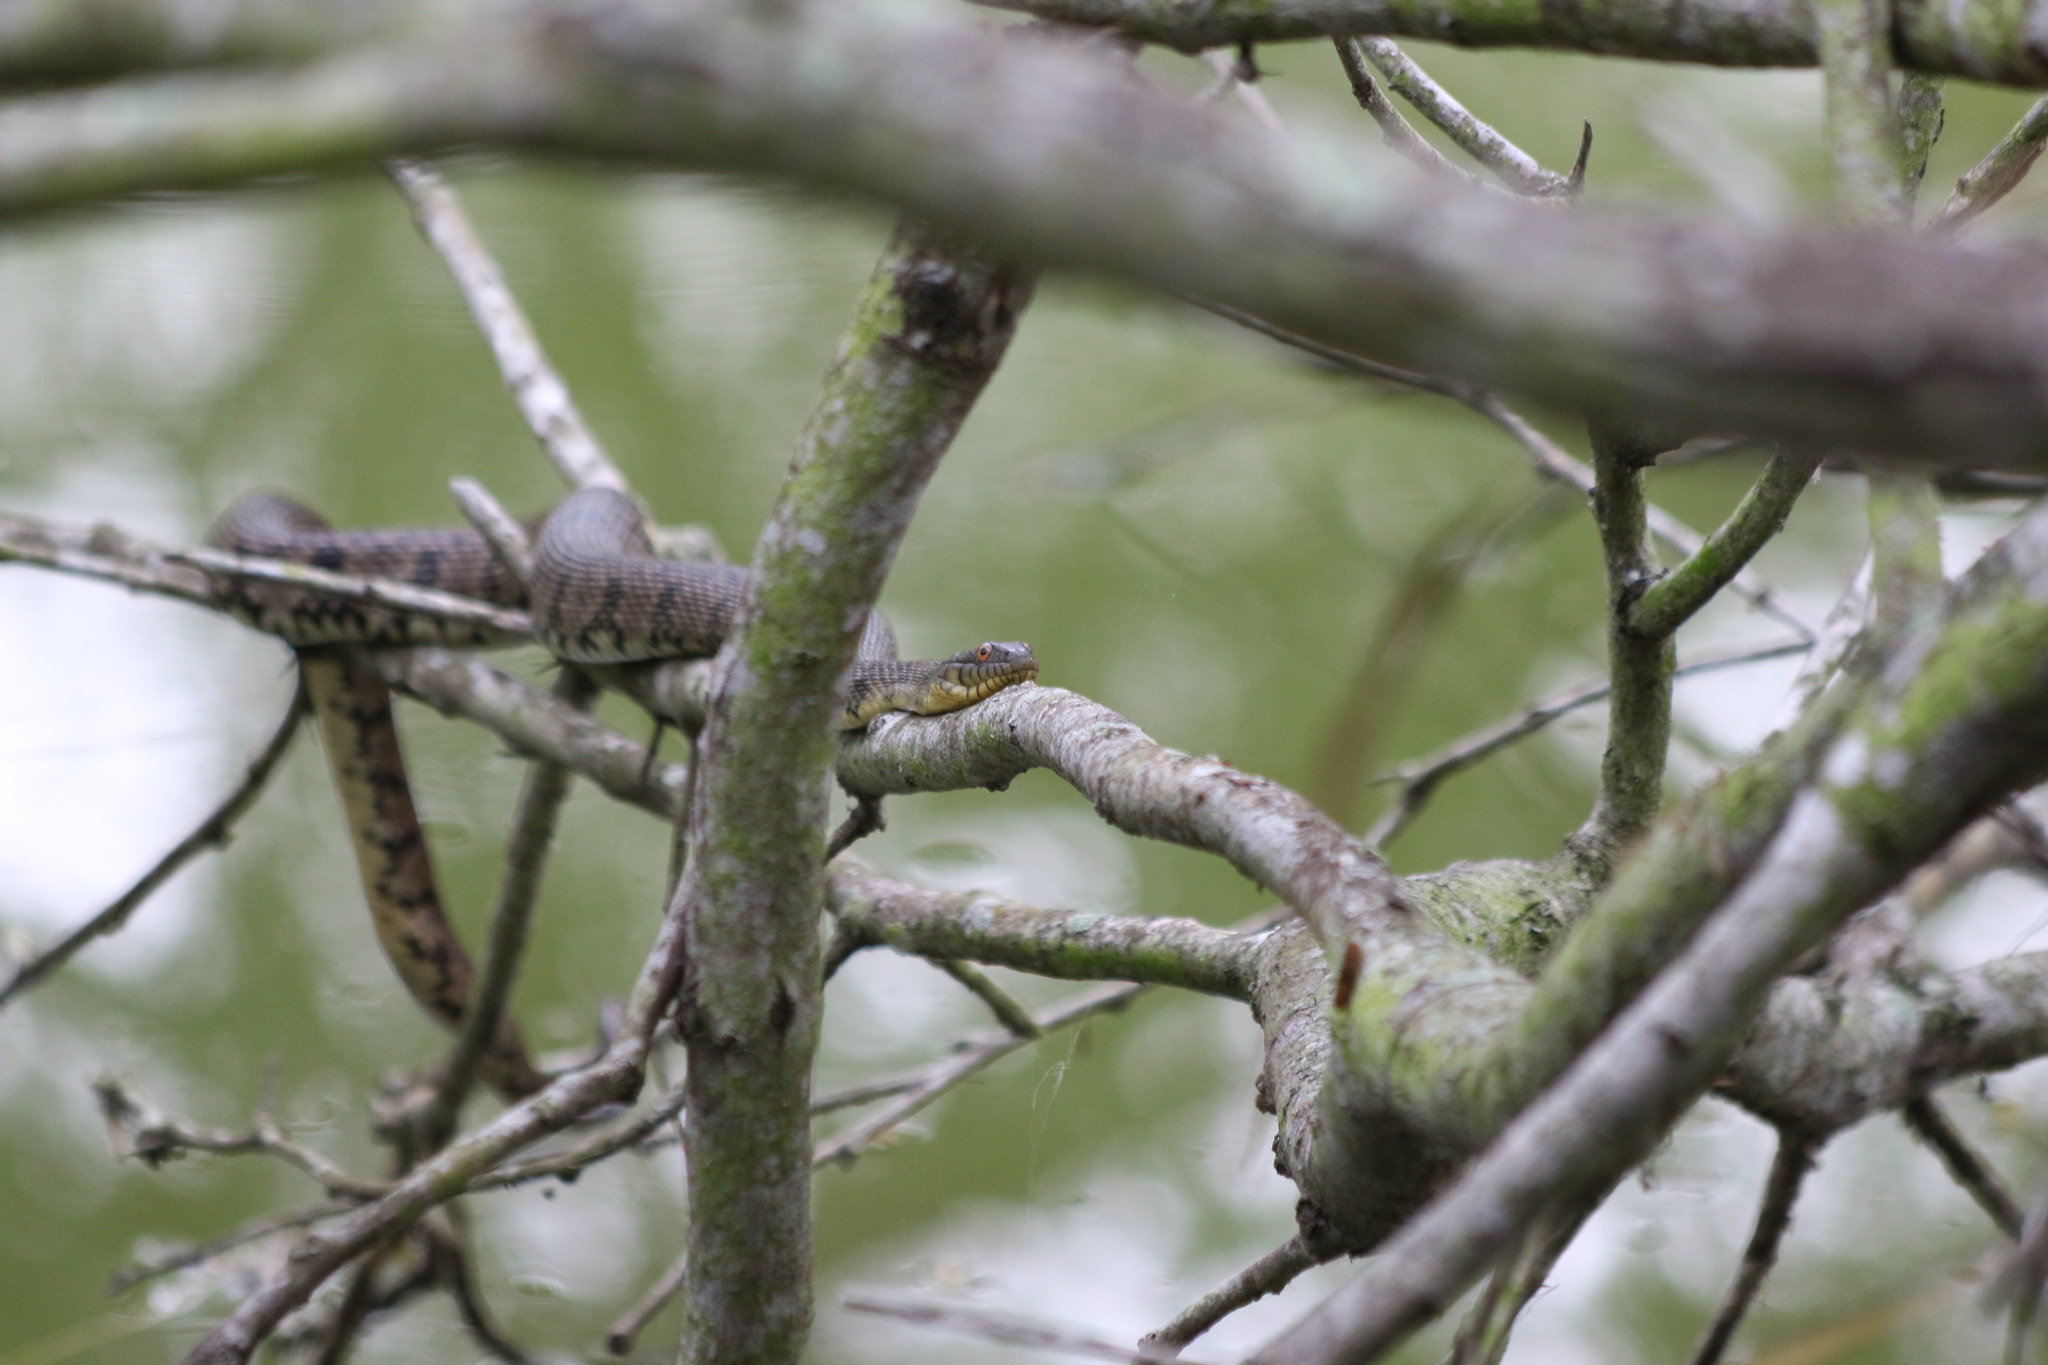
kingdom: Animalia
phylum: Chordata
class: Squamata
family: Colubridae
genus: Nerodia
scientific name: Nerodia rhombifer
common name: Diamondback water snake
